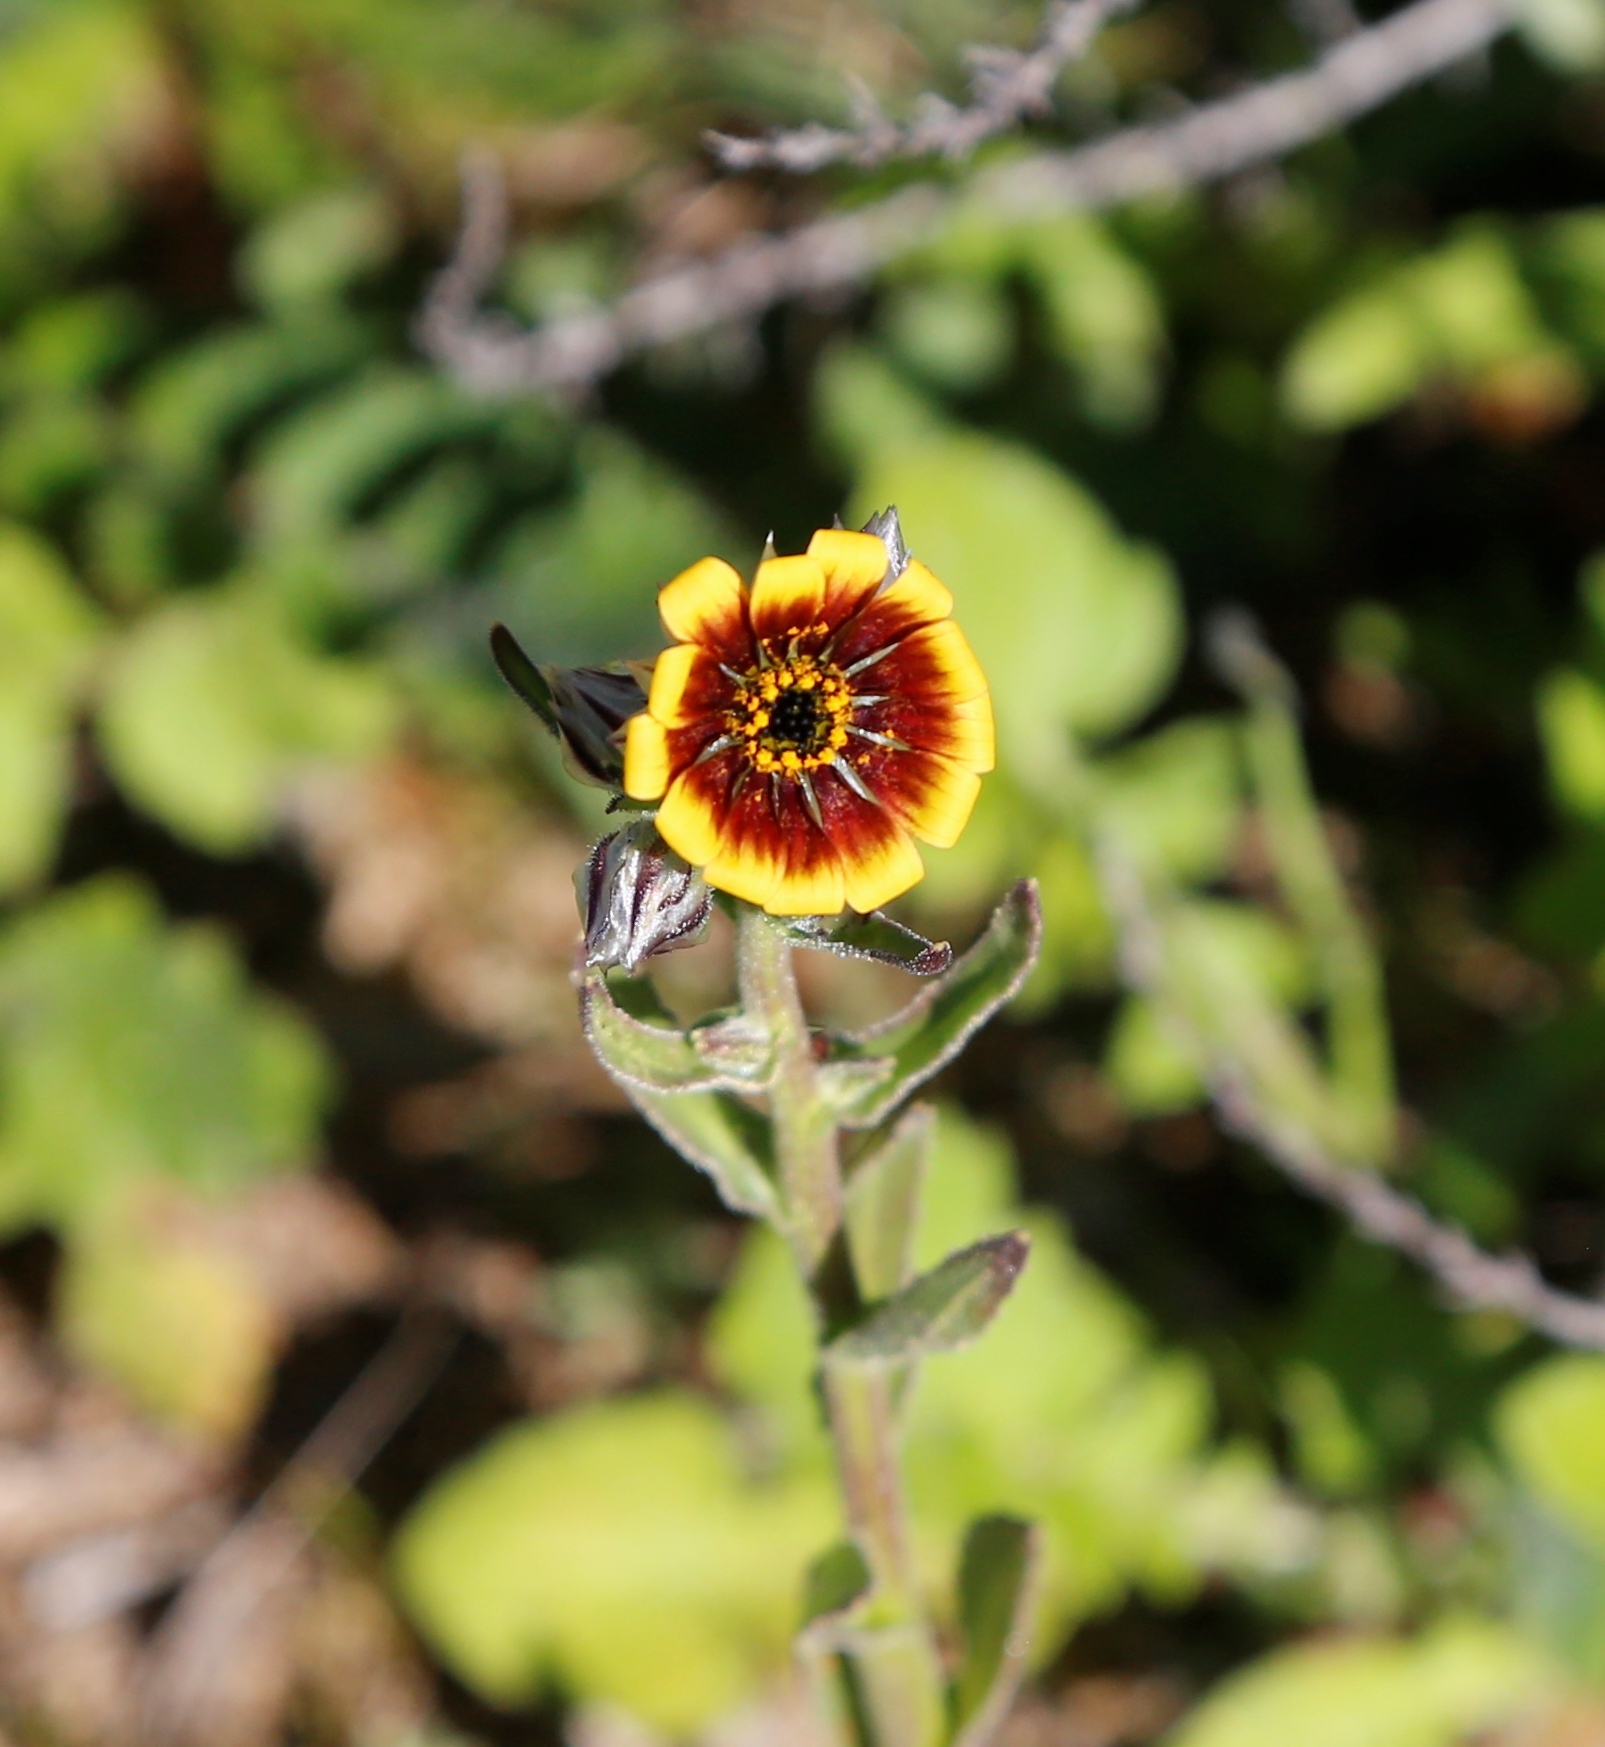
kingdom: Plantae
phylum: Tracheophyta
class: Magnoliopsida
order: Asterales
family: Asteraceae
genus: Osteospermum
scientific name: Osteospermum monstrosum
